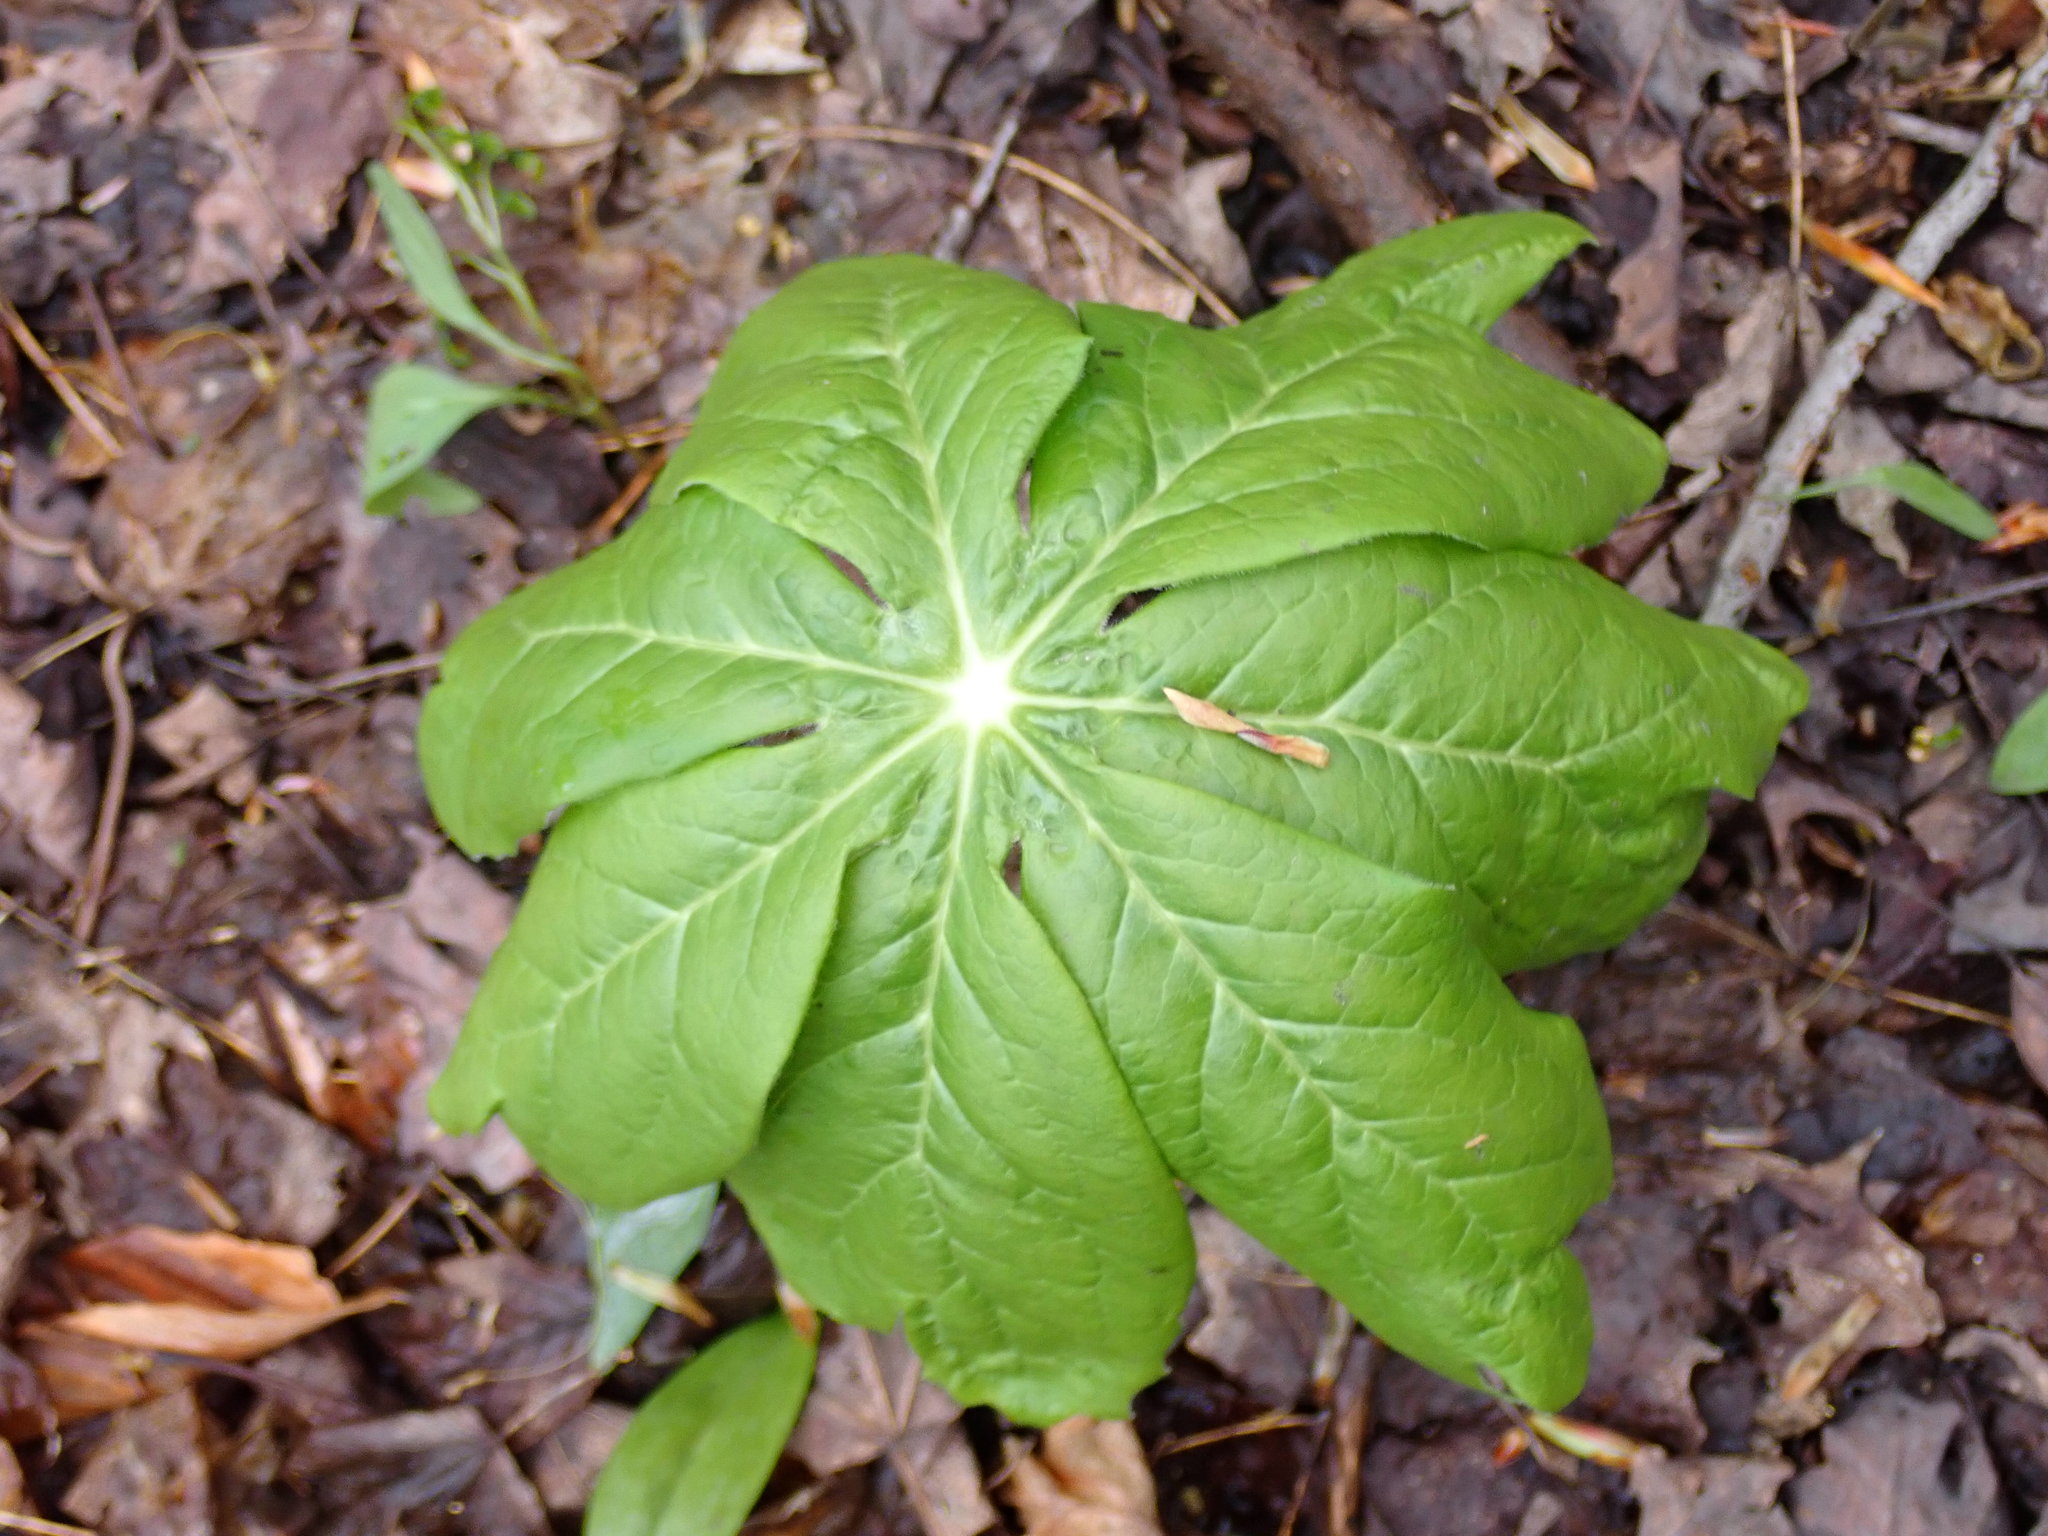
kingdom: Plantae
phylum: Tracheophyta
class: Magnoliopsida
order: Ranunculales
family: Berberidaceae
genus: Podophyllum
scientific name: Podophyllum peltatum
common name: Wild mandrake
